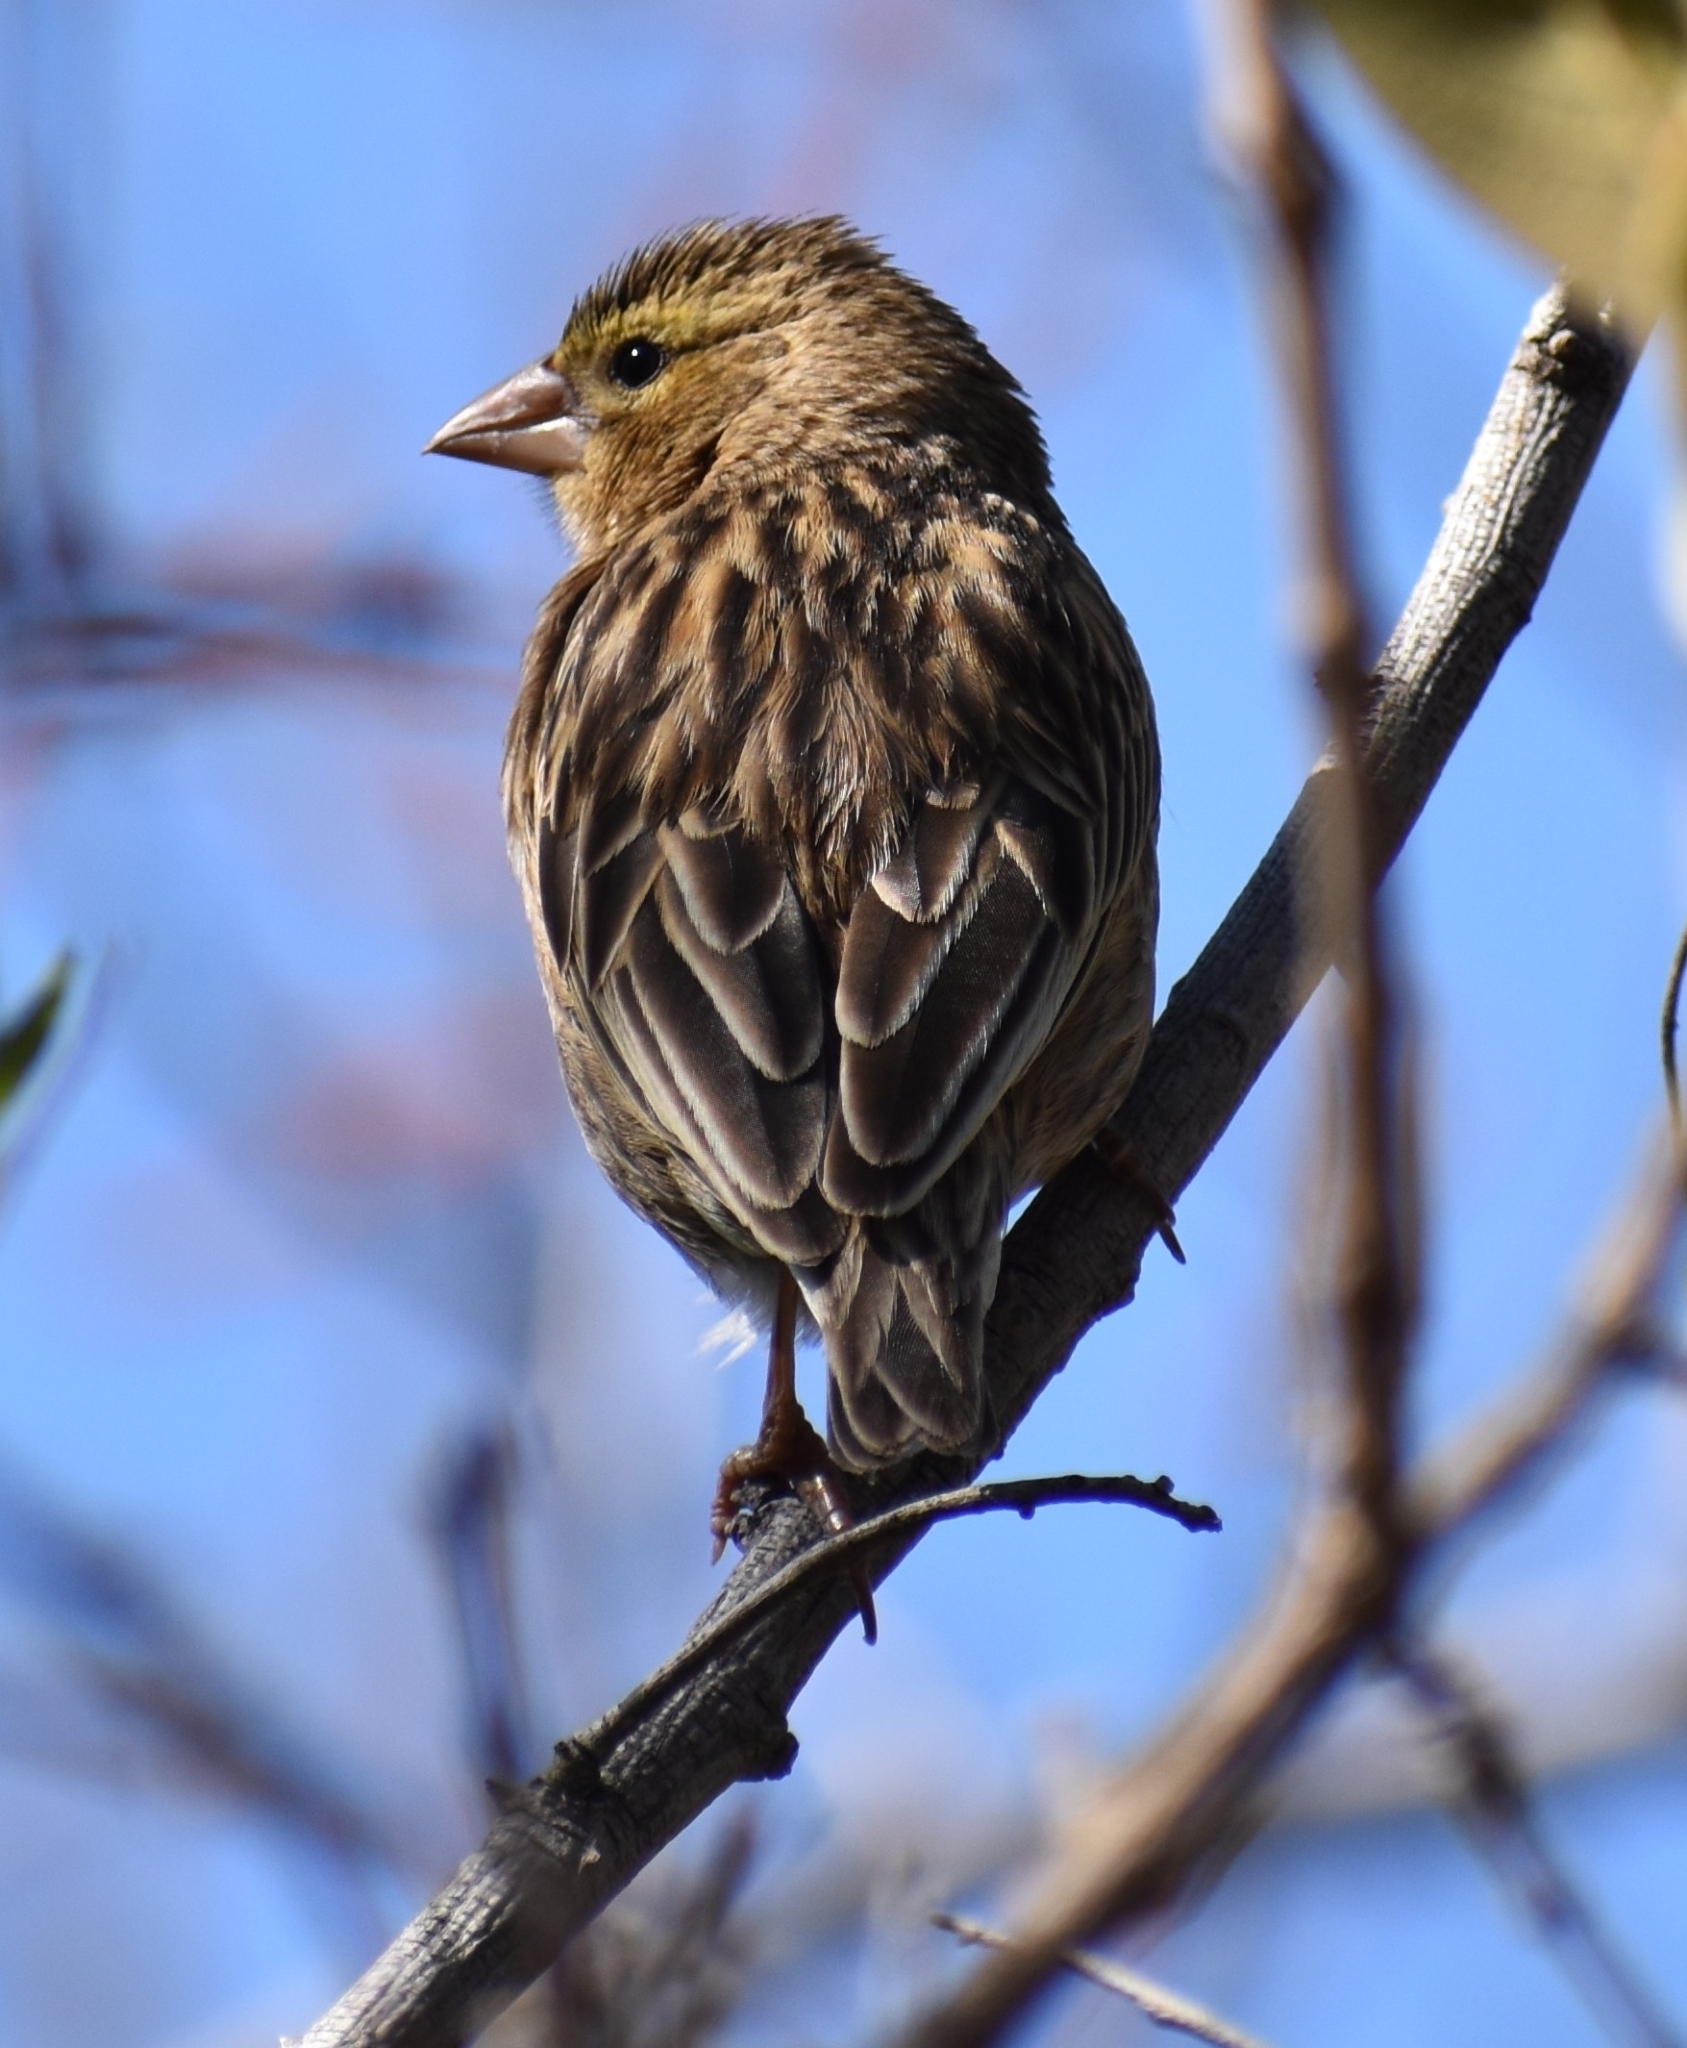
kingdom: Animalia
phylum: Chordata
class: Aves
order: Passeriformes
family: Ploceidae
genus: Euplectes
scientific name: Euplectes orix
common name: Southern red bishop
